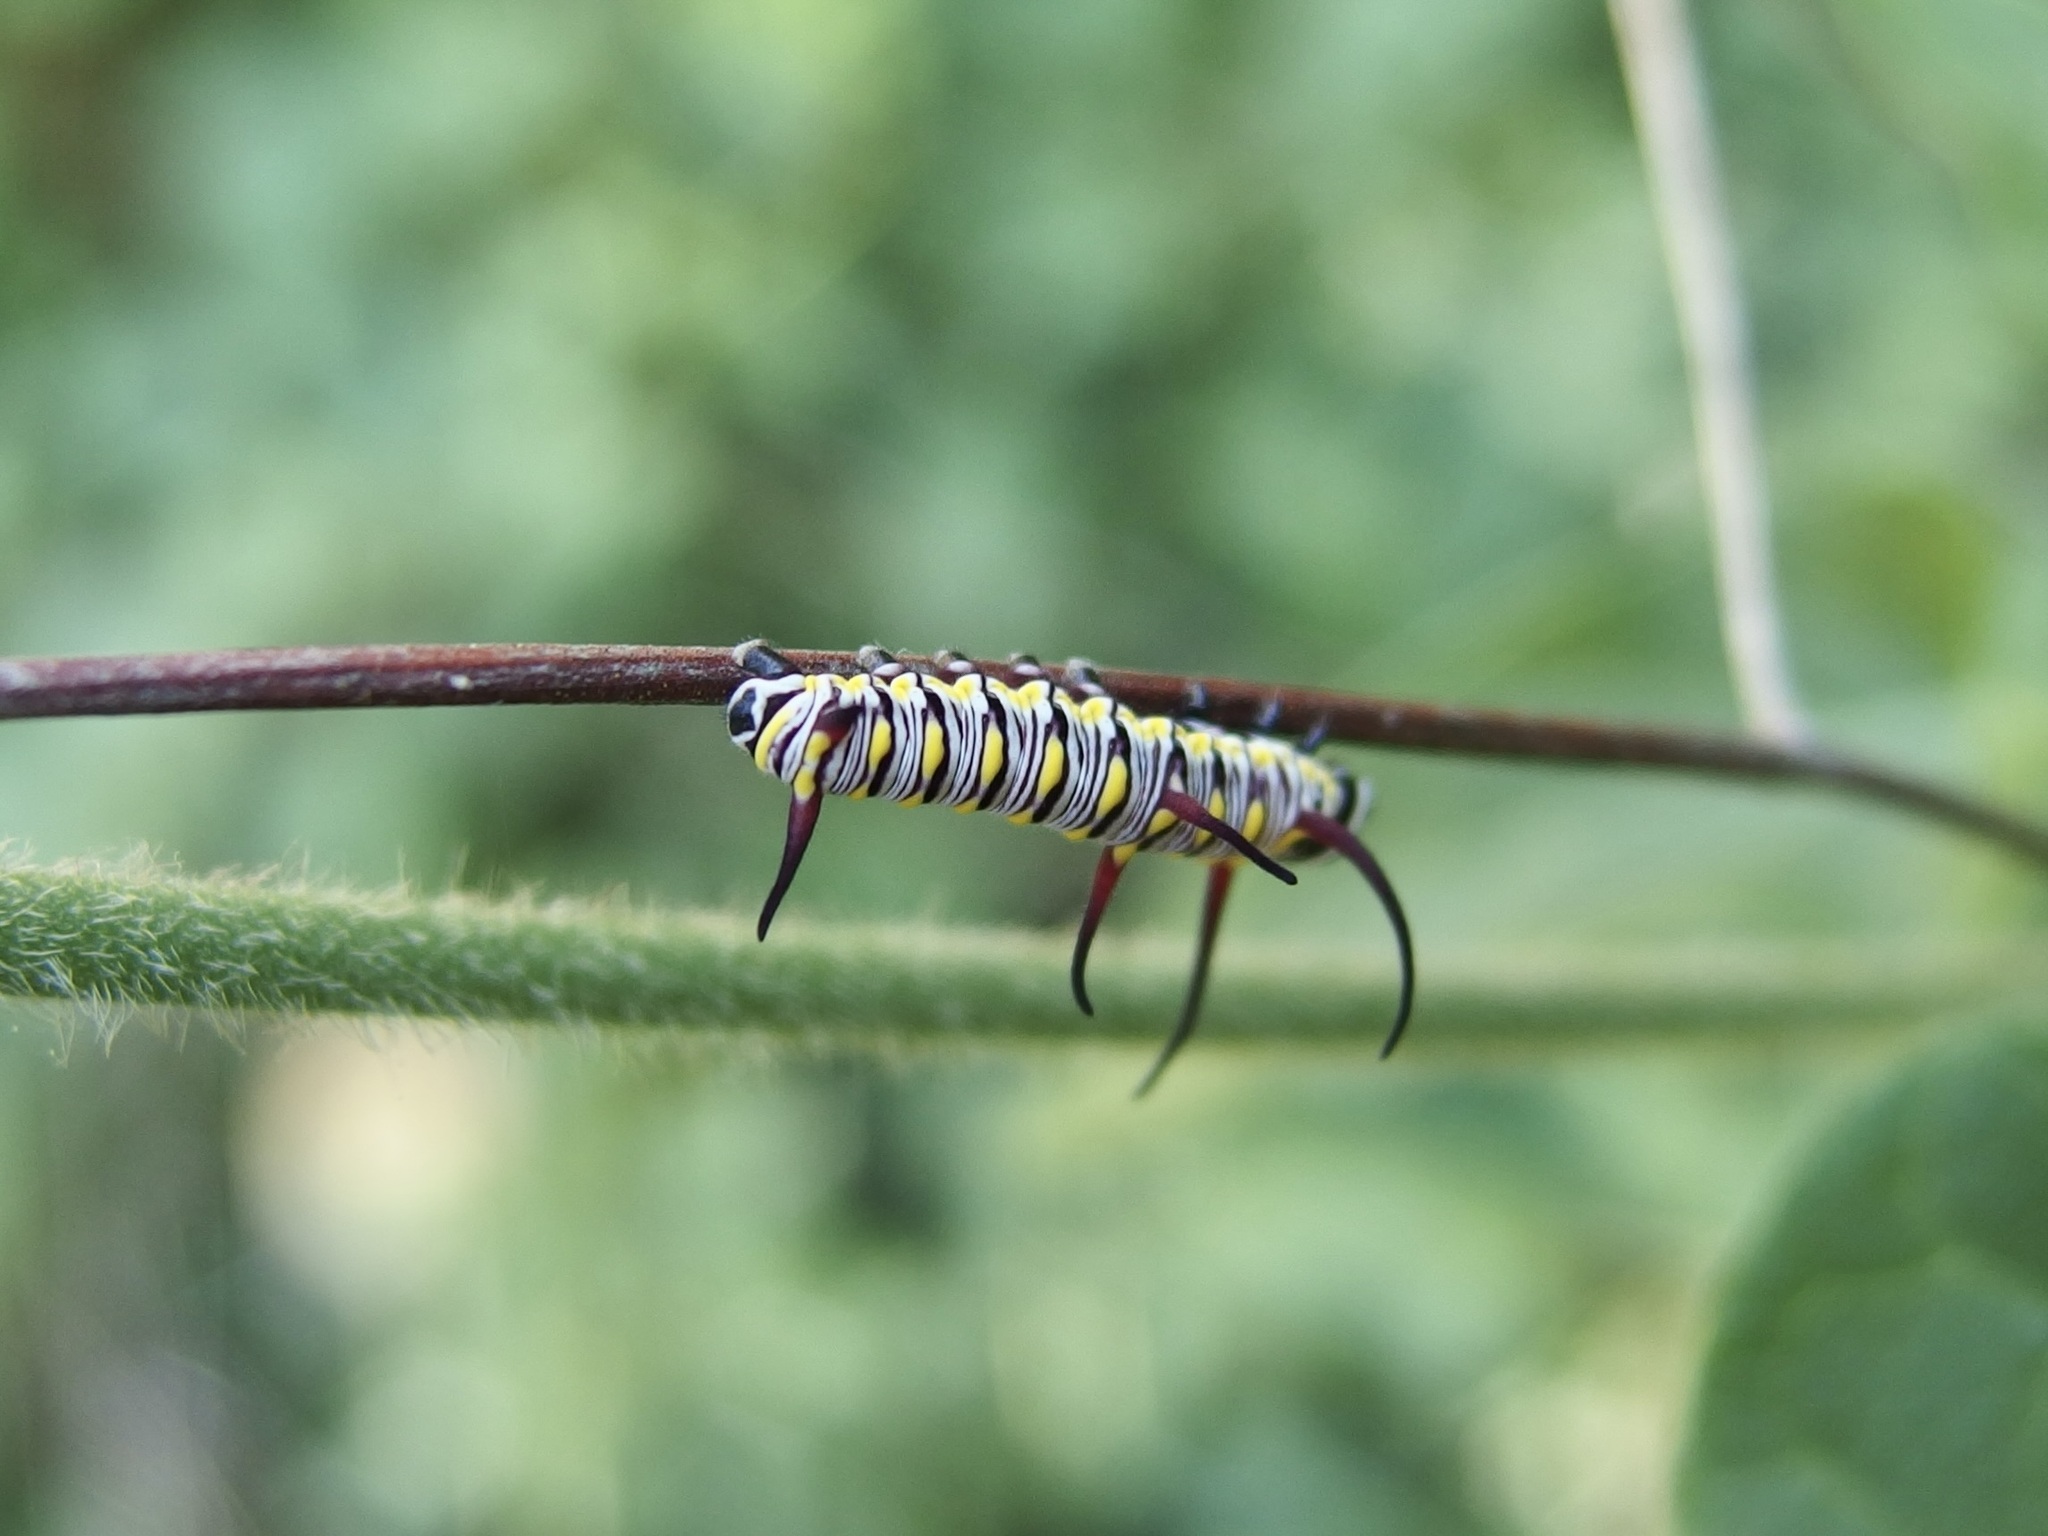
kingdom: Animalia
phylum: Arthropoda
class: Insecta
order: Lepidoptera
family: Nymphalidae
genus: Danaus
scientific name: Danaus gilippus
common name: Queen
